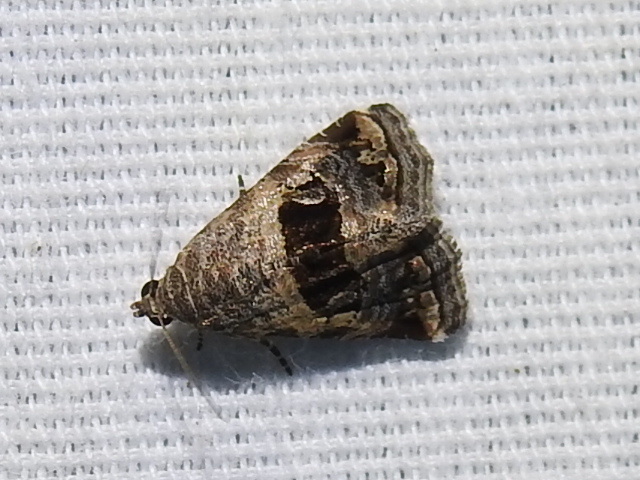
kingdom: Animalia
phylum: Arthropoda
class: Insecta
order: Lepidoptera
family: Noctuidae
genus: Tripudia
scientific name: Tripudia quadrifera
